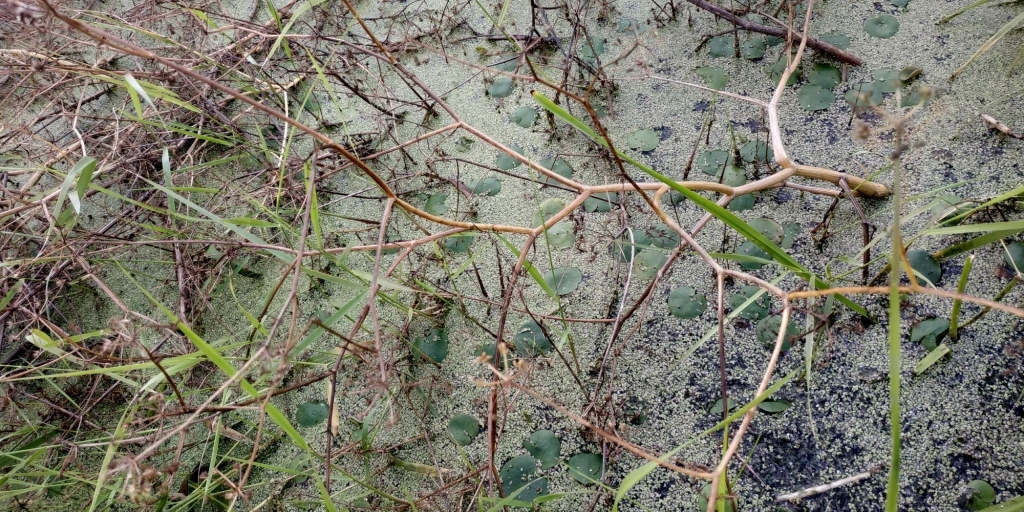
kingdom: Plantae
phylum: Tracheophyta
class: Magnoliopsida
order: Apiales
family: Apiaceae
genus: Oenanthe
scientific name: Oenanthe aquatica
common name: Fine-leaved water-dropwort
